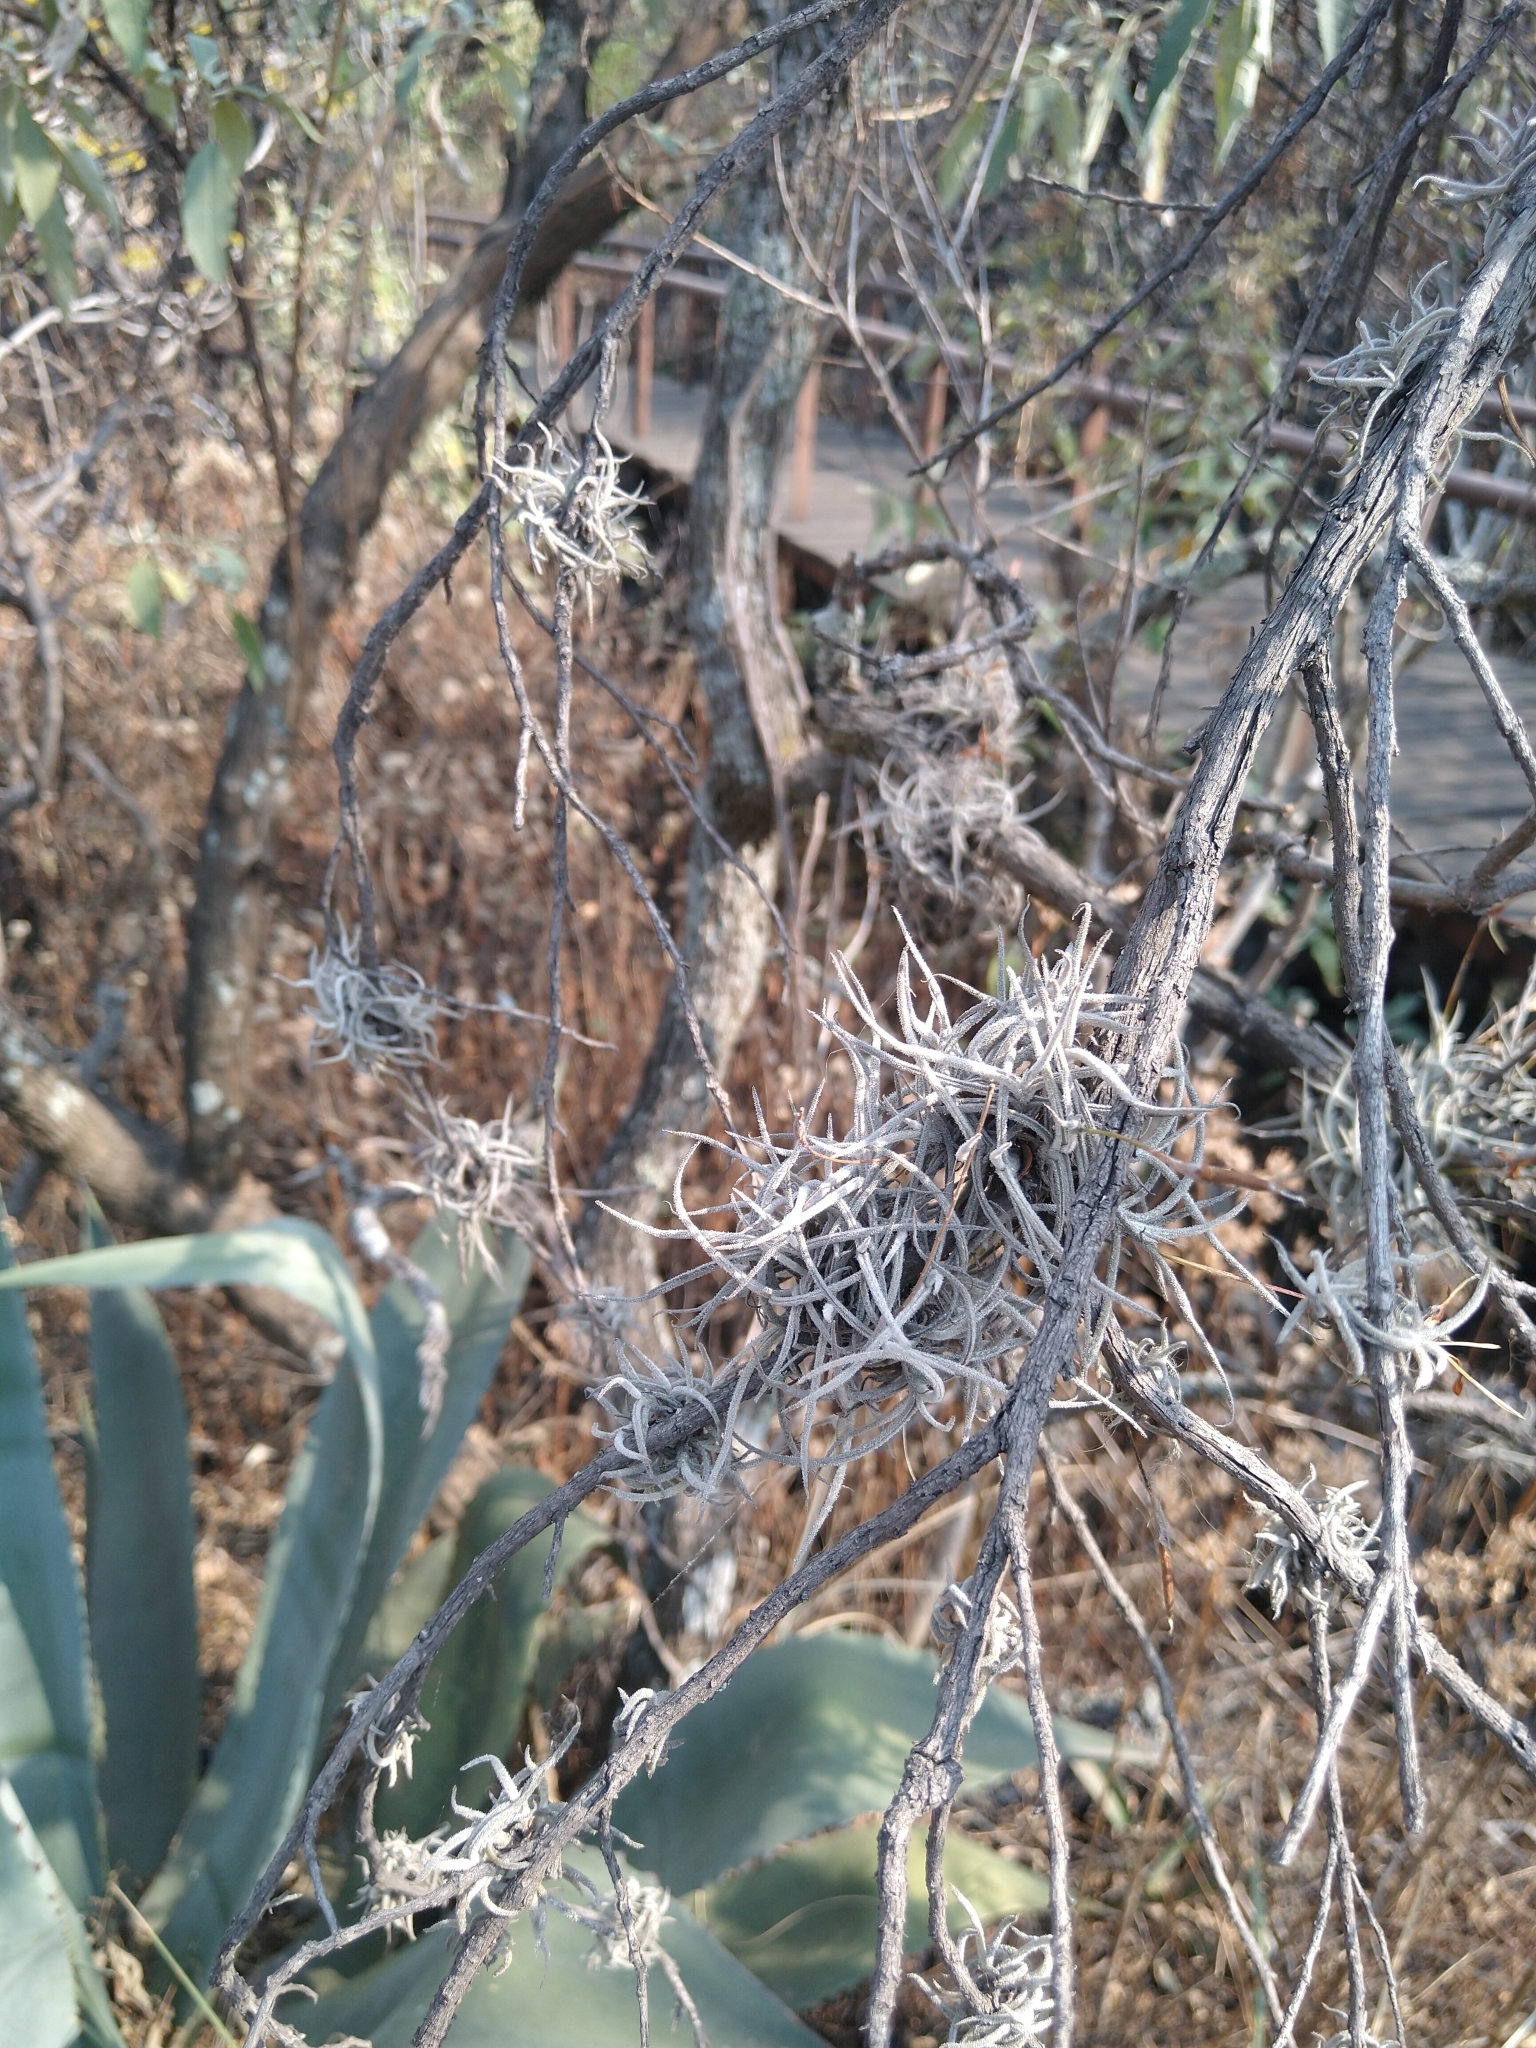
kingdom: Plantae
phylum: Tracheophyta
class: Liliopsida
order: Poales
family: Bromeliaceae
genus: Tillandsia
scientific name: Tillandsia recurvata
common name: Small ballmoss
